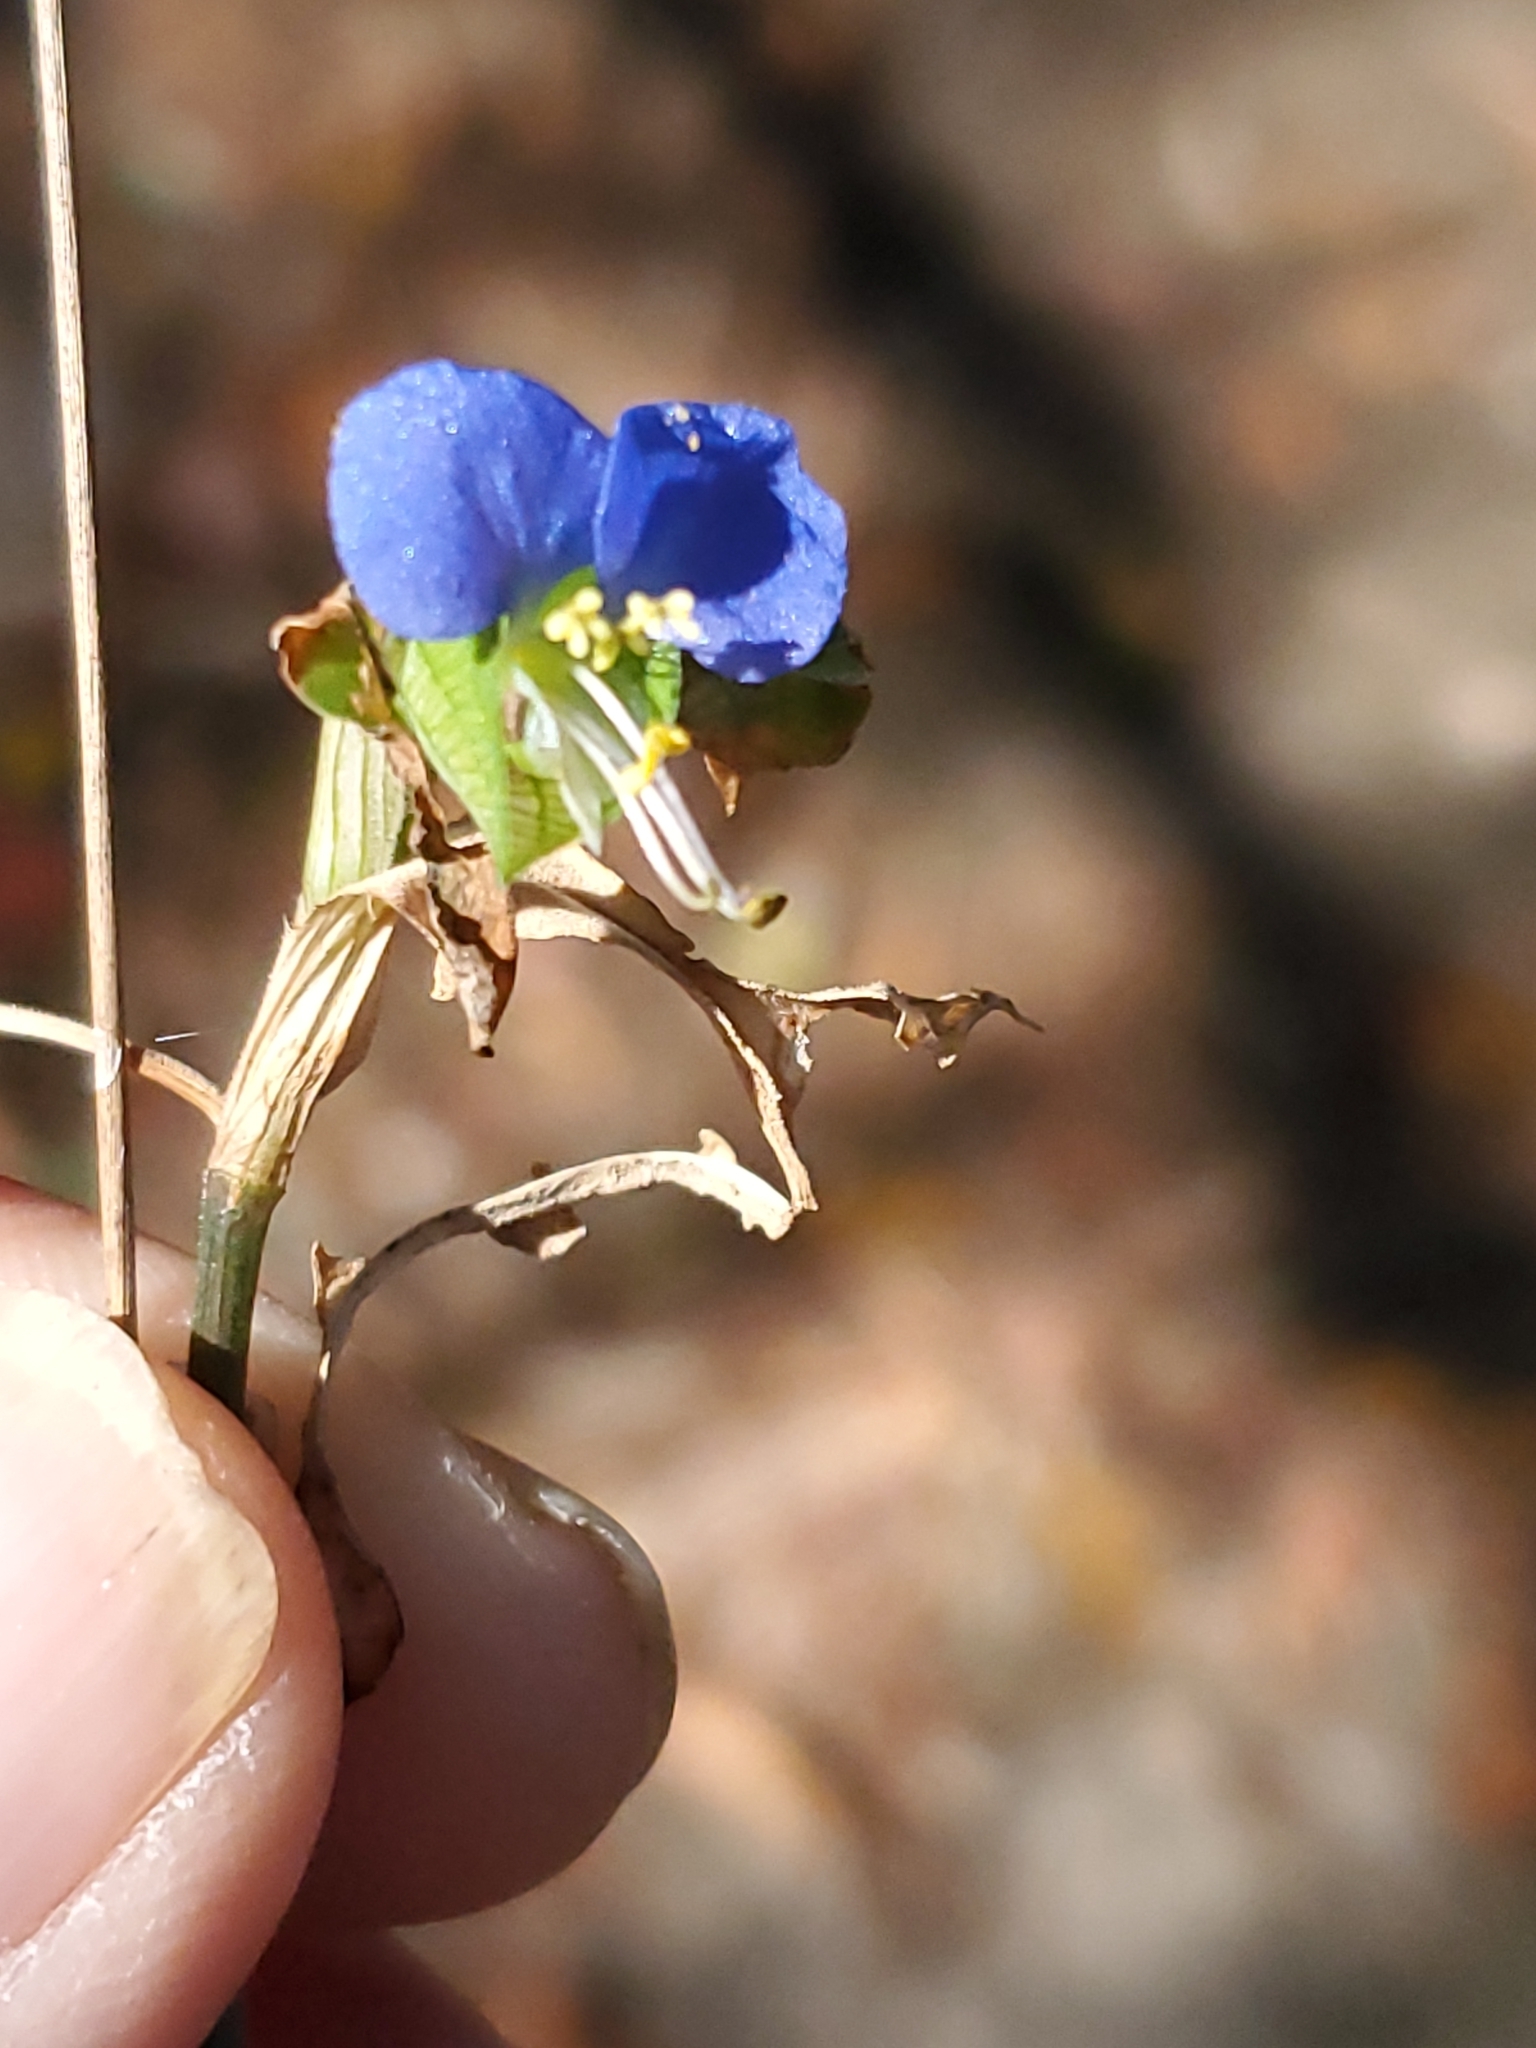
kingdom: Plantae
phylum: Tracheophyta
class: Liliopsida
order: Commelinales
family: Commelinaceae
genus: Commelina
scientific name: Commelina communis
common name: Asiatic dayflower
